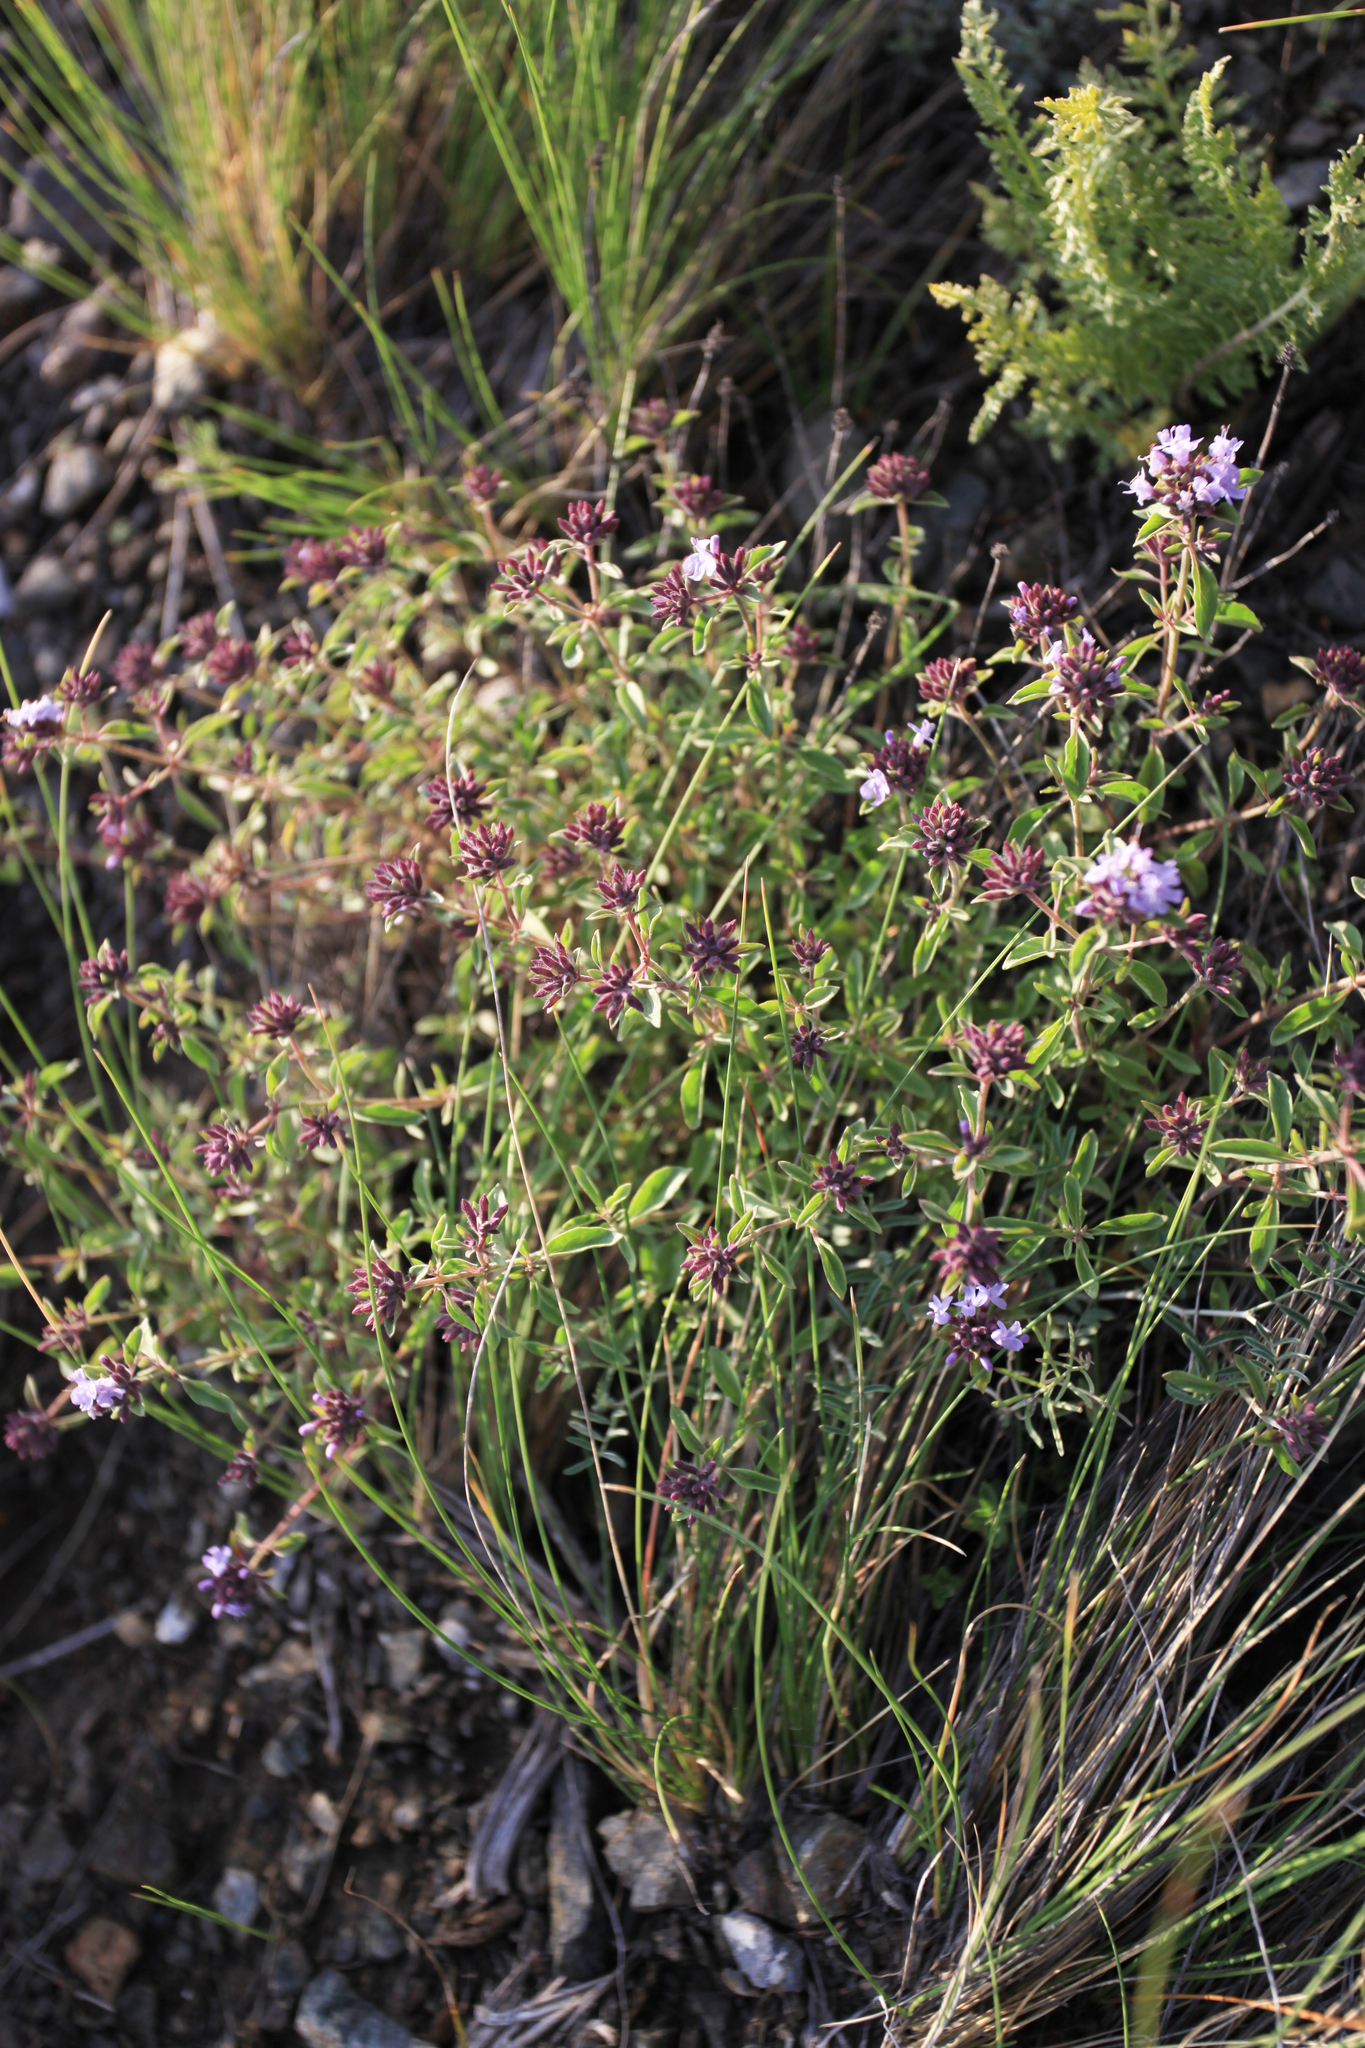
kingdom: Plantae
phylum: Tracheophyta
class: Magnoliopsida
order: Lamiales
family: Lamiaceae
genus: Ziziphora
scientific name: Ziziphora clinopodioides
